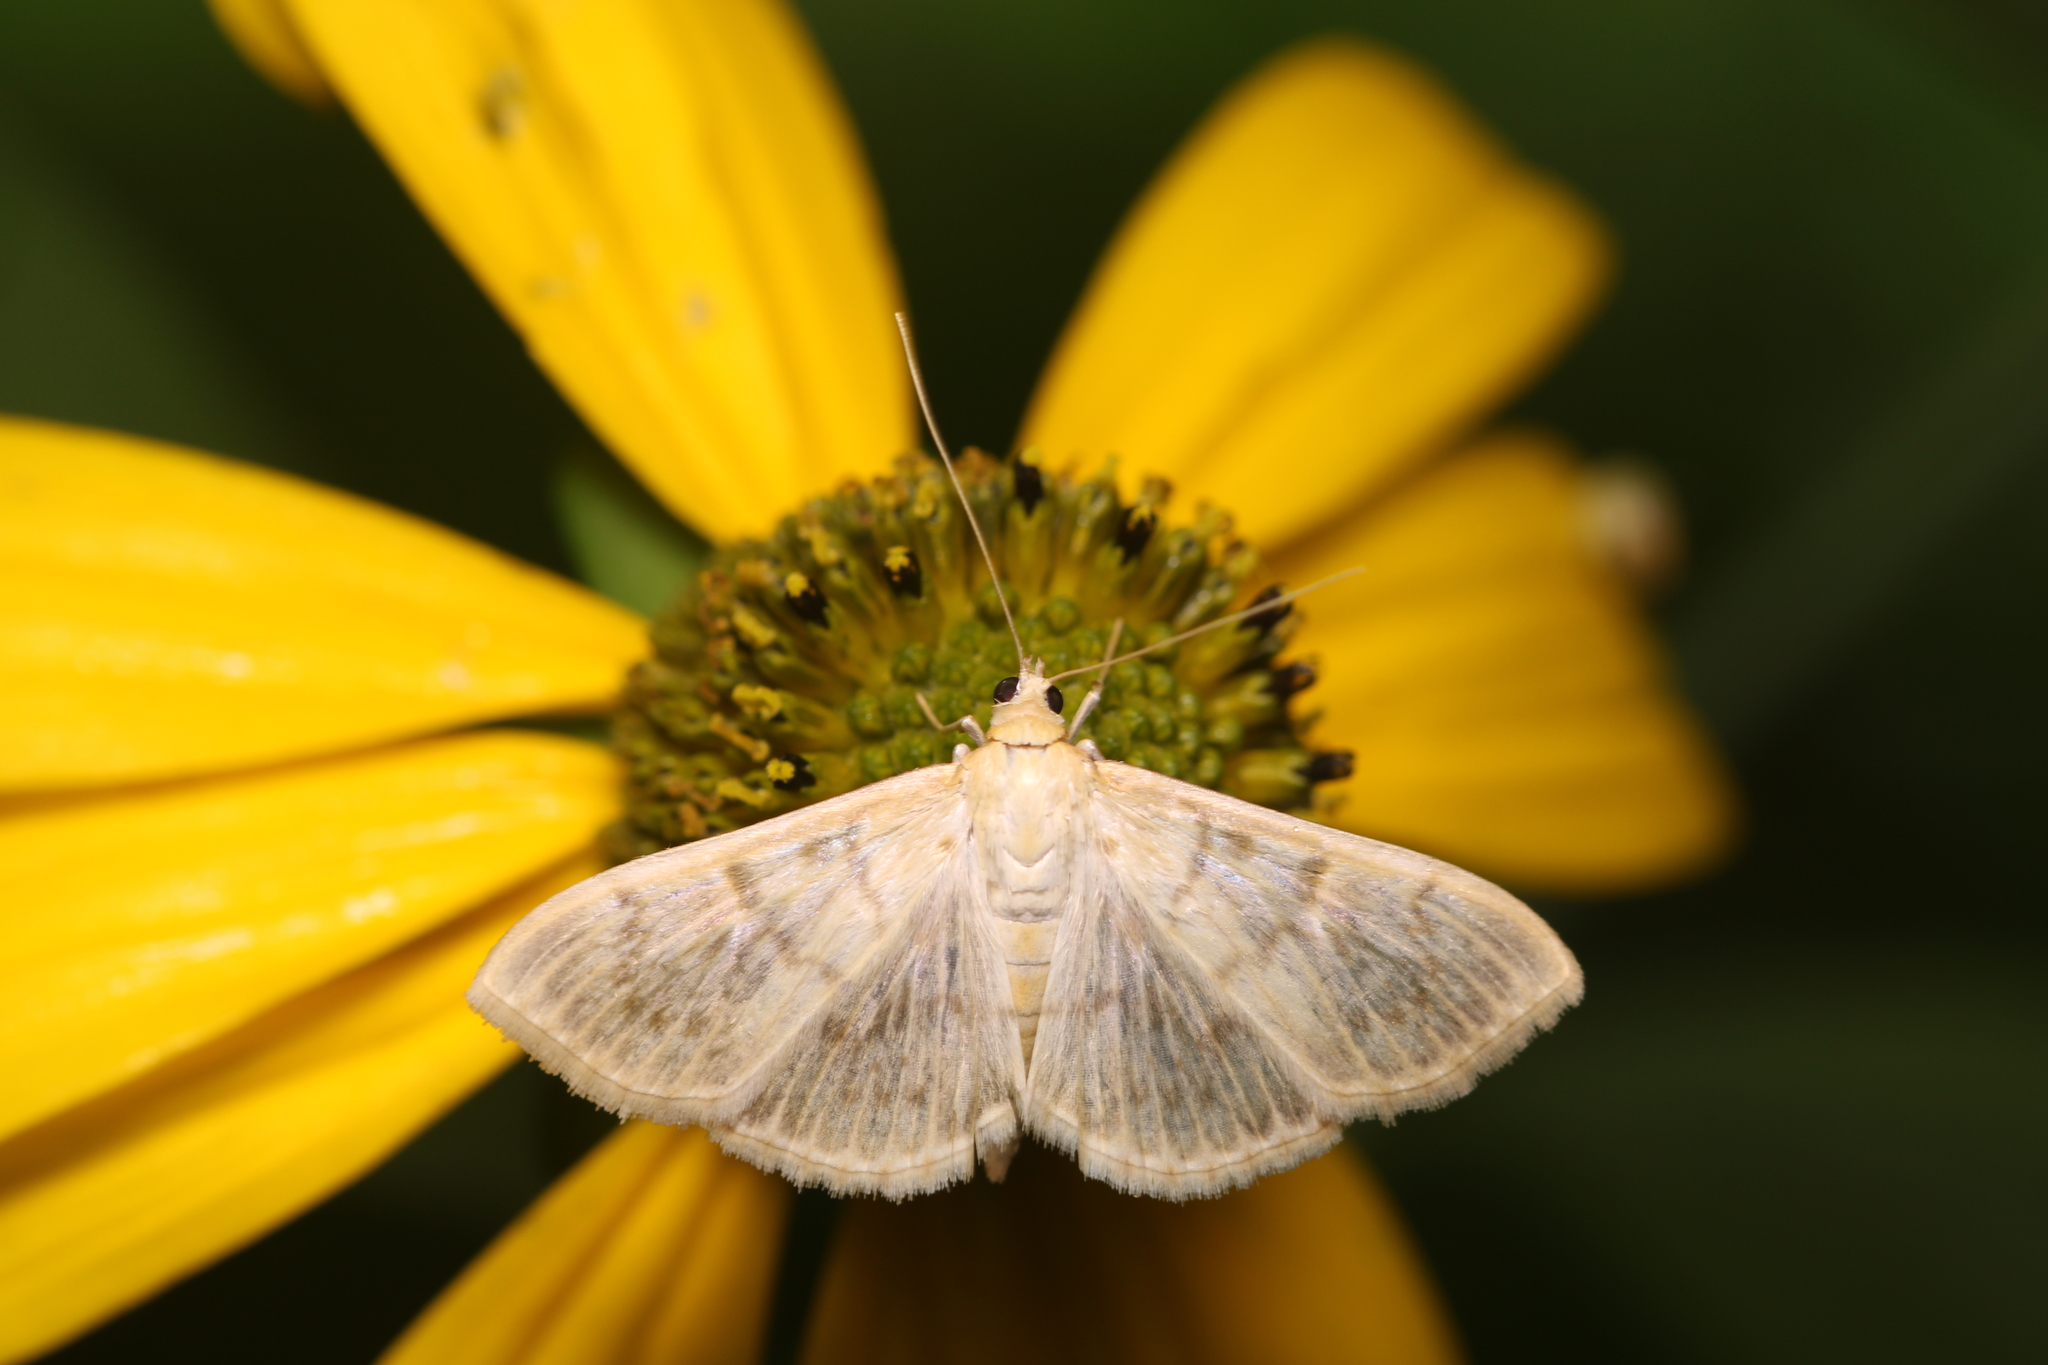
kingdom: Animalia
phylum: Arthropoda
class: Insecta
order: Lepidoptera
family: Crambidae
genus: Patania
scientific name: Patania ruralis
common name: Mother of pearl
